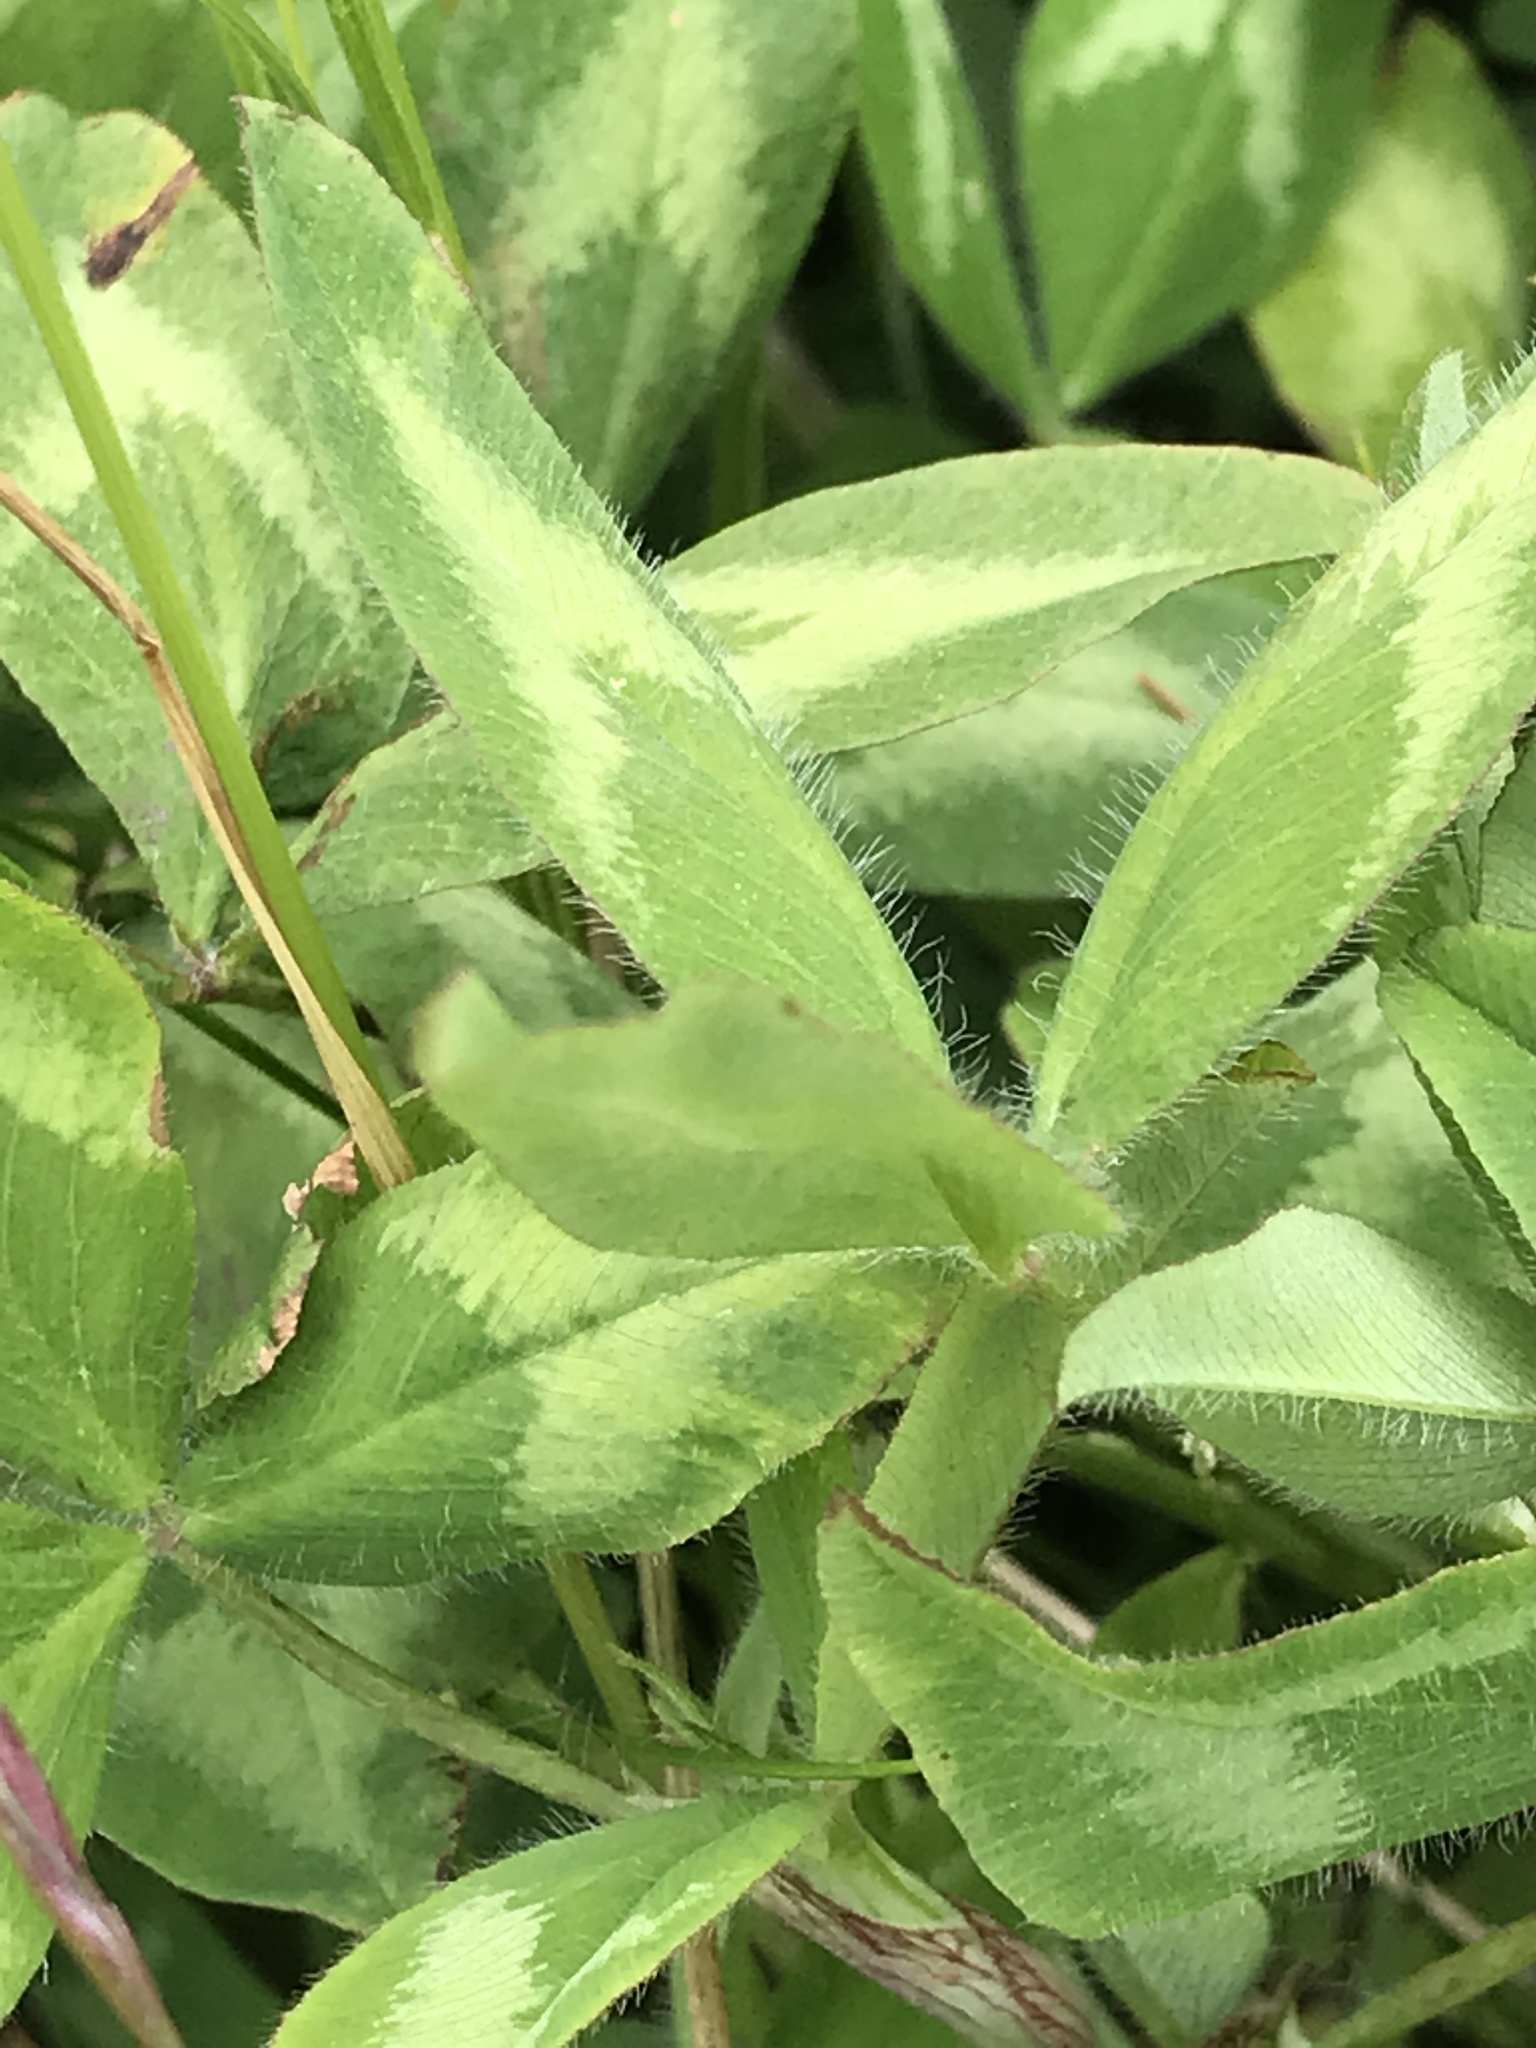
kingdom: Plantae
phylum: Tracheophyta
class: Magnoliopsida
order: Fabales
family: Fabaceae
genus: Trifolium
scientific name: Trifolium pratense
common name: Red clover
